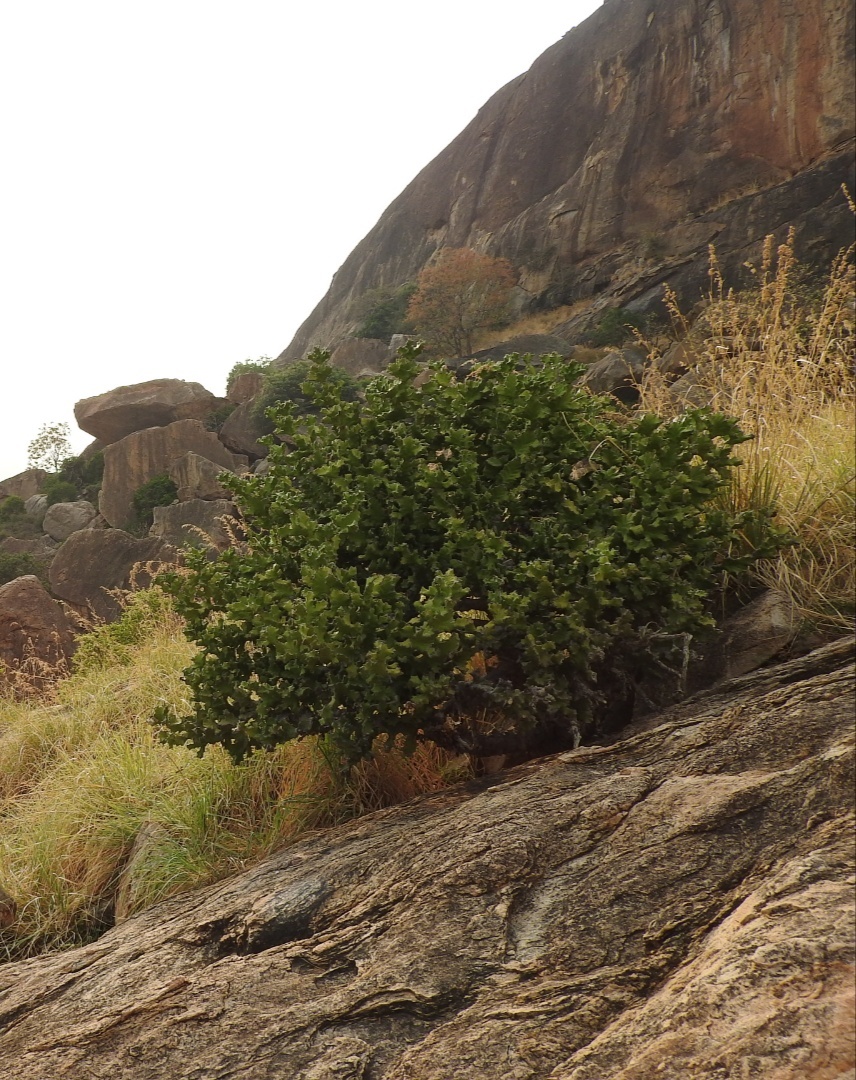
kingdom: Plantae
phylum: Tracheophyta
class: Magnoliopsida
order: Malpighiales
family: Euphorbiaceae
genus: Euphorbia
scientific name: Euphorbia antiquorum
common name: Malayan spurge tree
